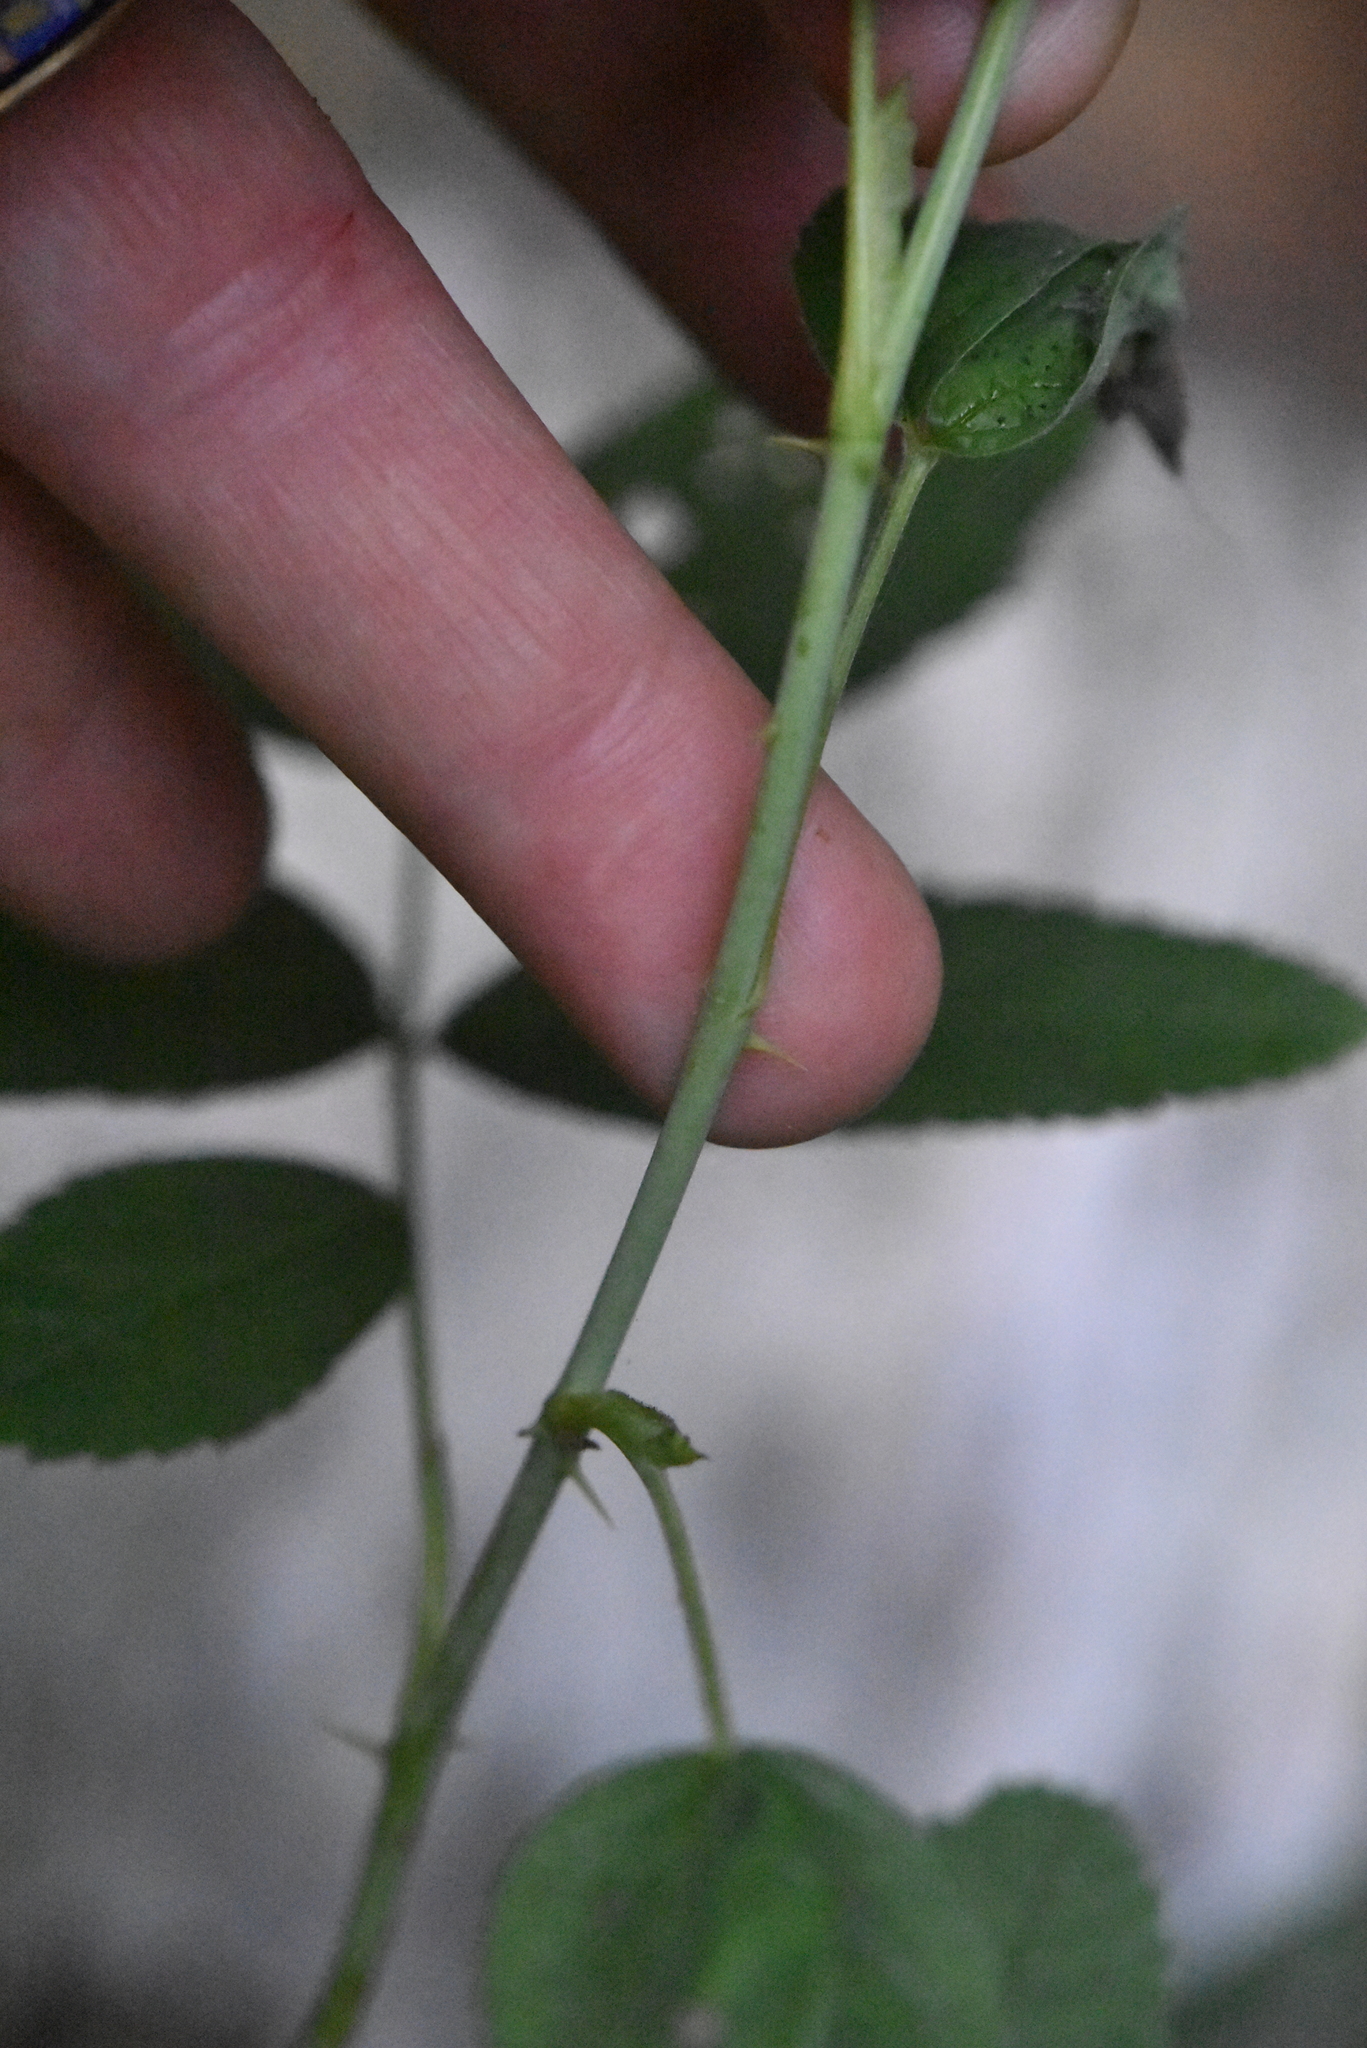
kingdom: Plantae
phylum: Tracheophyta
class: Magnoliopsida
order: Rosales
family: Rosaceae
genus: Rosa
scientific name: Rosa majalis
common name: Cinnamon rose
